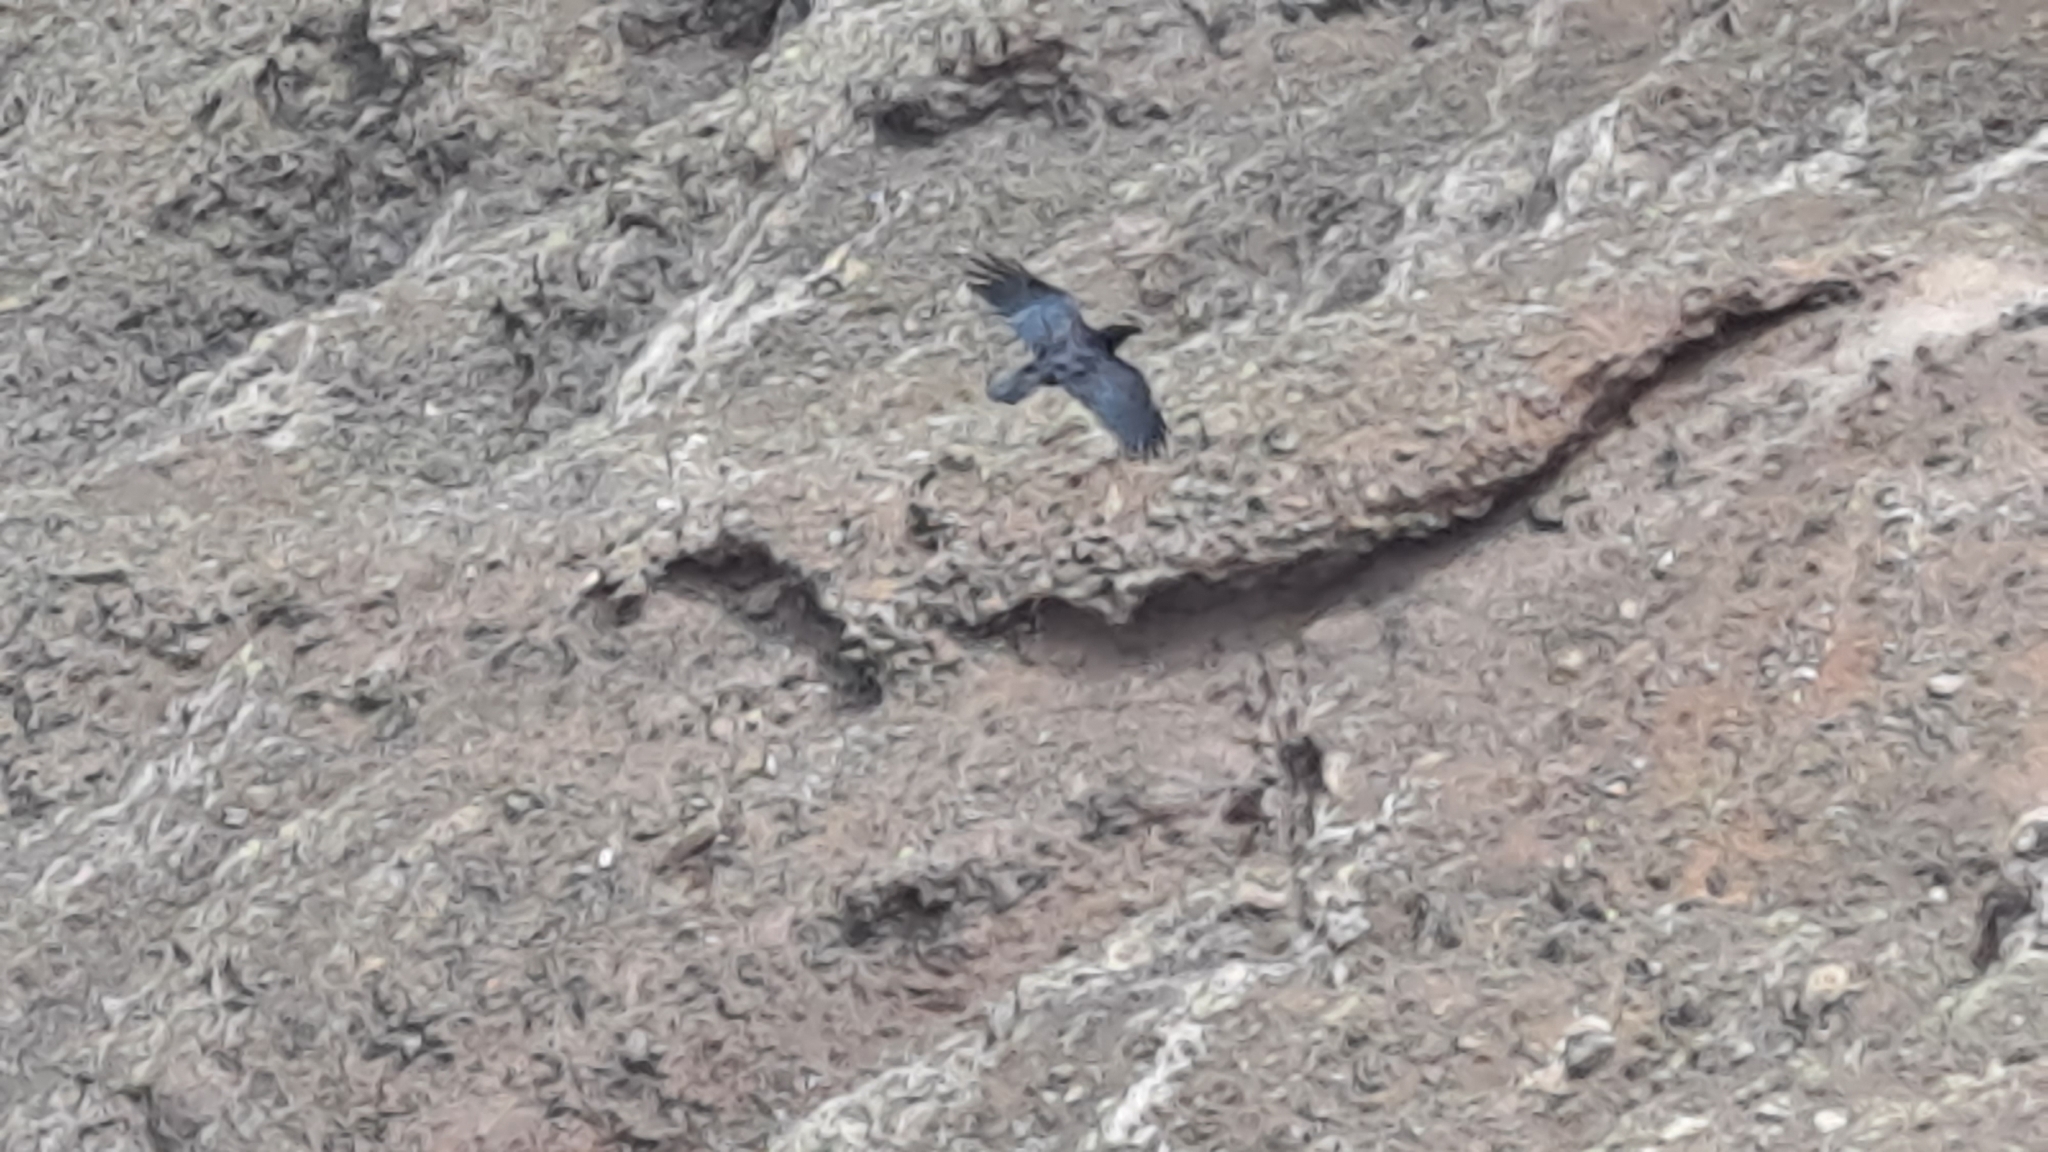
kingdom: Animalia
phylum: Chordata
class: Aves
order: Passeriformes
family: Corvidae
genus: Corvus
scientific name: Corvus corax
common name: Common raven
